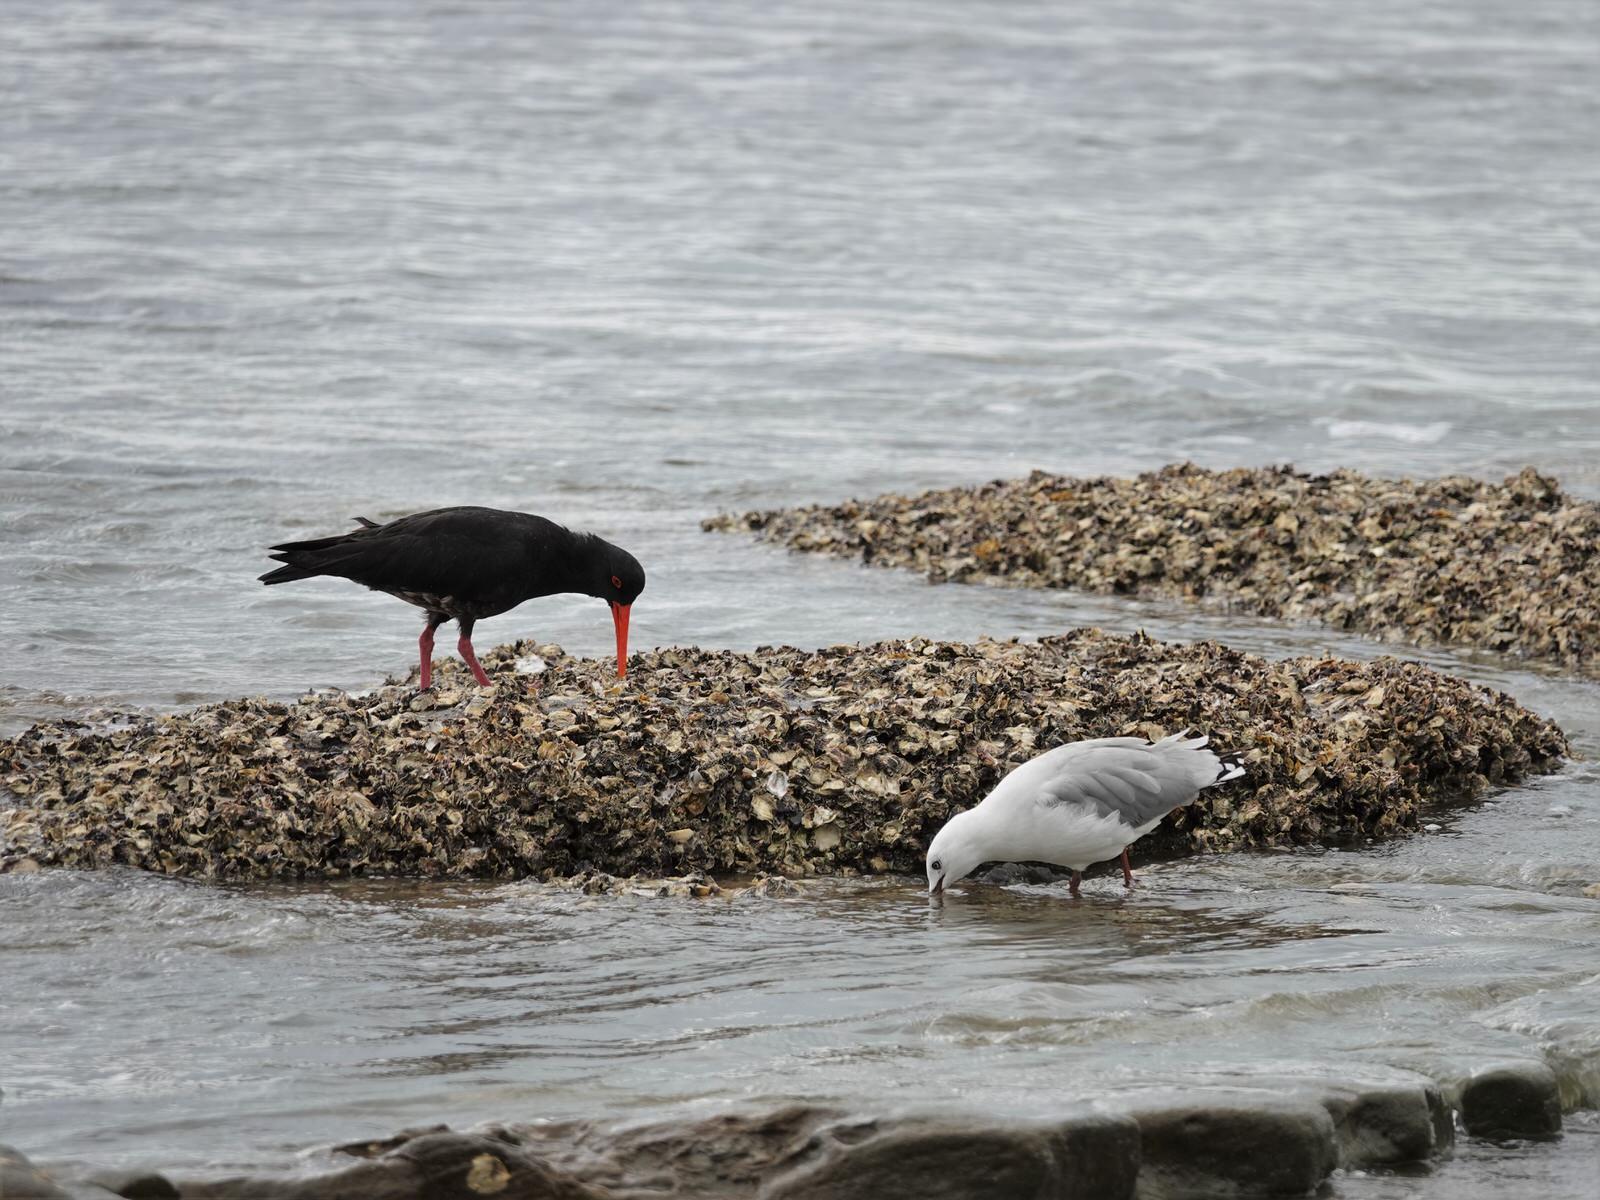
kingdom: Animalia
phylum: Chordata
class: Aves
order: Charadriiformes
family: Haematopodidae
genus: Haematopus
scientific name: Haematopus unicolor
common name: Variable oystercatcher
